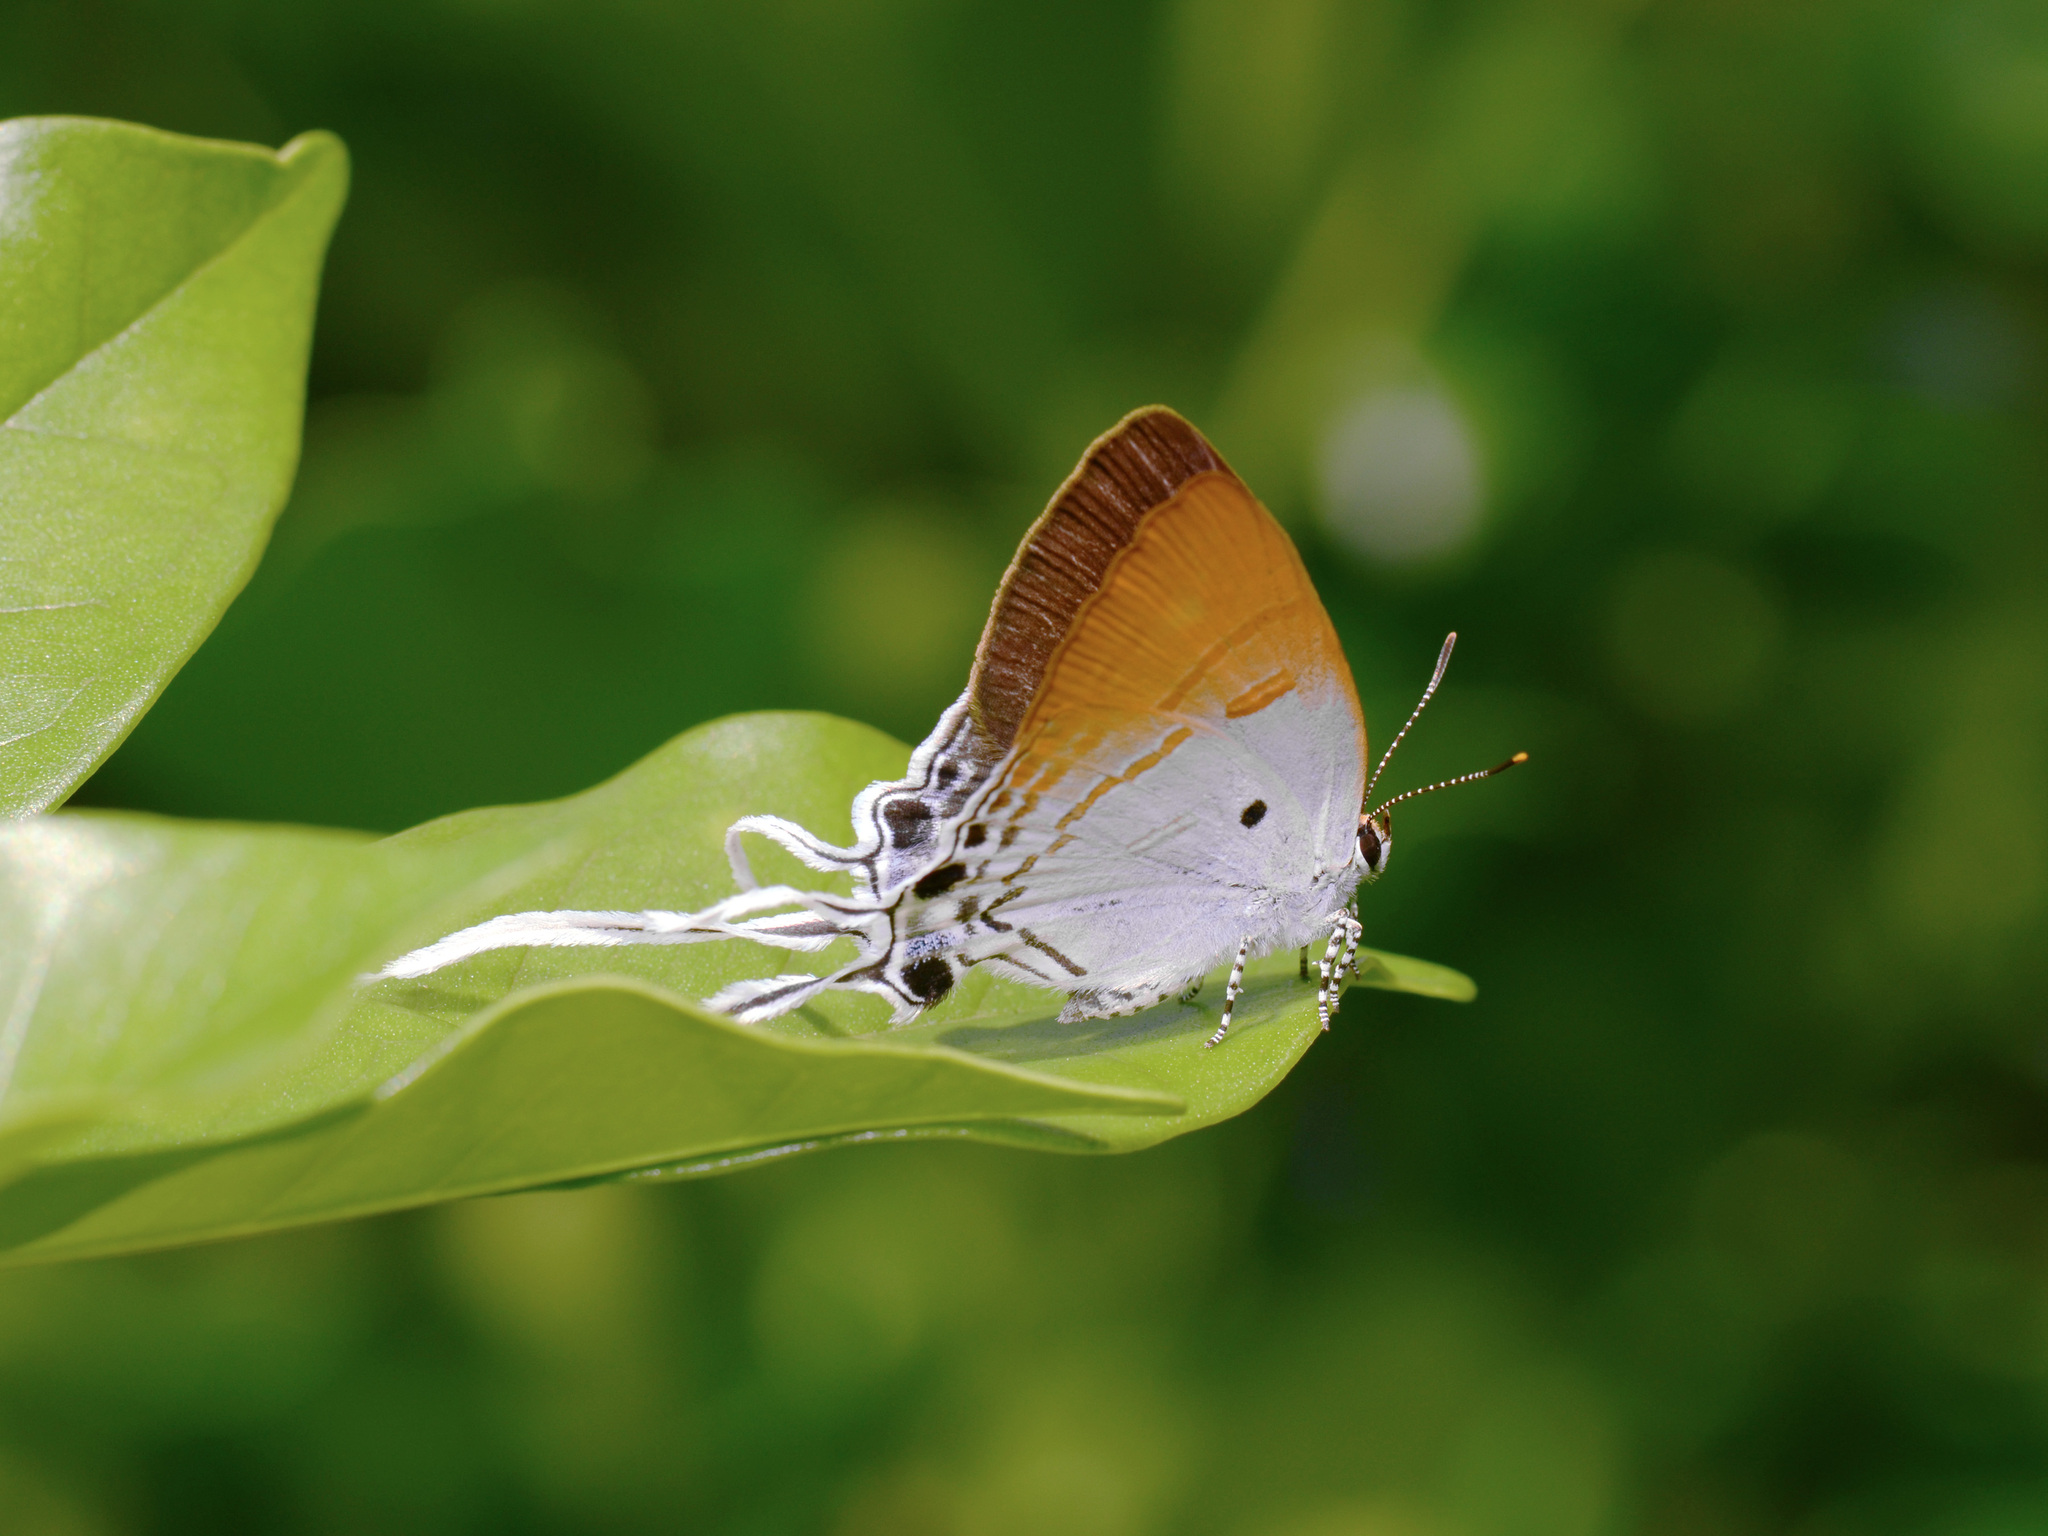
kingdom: Animalia
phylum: Arthropoda
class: Insecta
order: Lepidoptera
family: Lycaenidae
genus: Zeltus
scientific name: Zeltus amasa
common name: Fluffy tit
